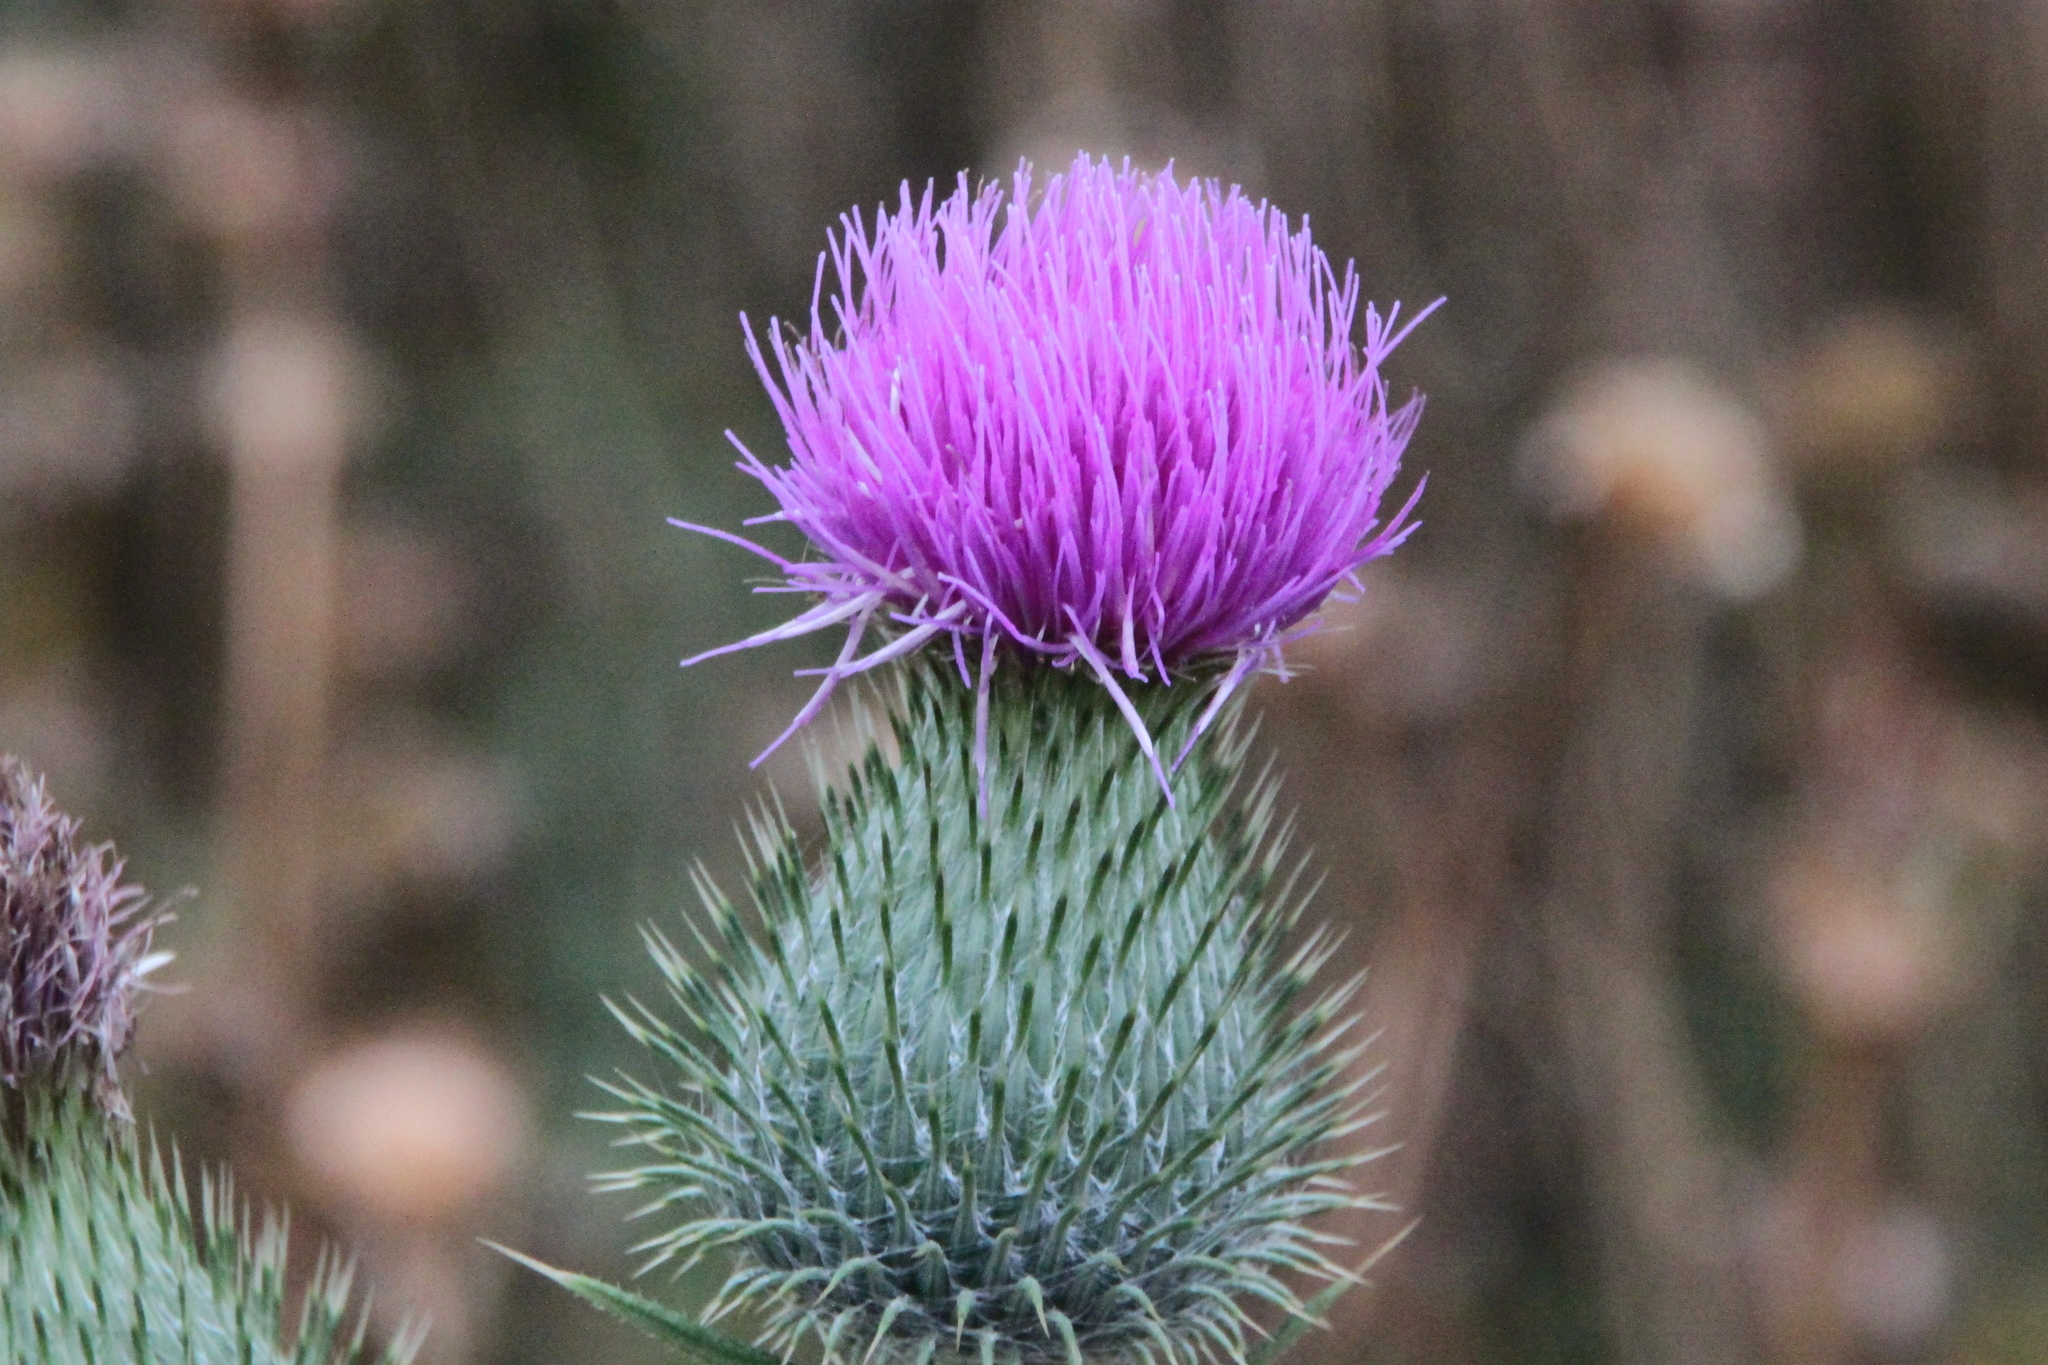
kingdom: Plantae
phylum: Tracheophyta
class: Magnoliopsida
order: Asterales
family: Asteraceae
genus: Cirsium
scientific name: Cirsium vulgare
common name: Bull thistle
